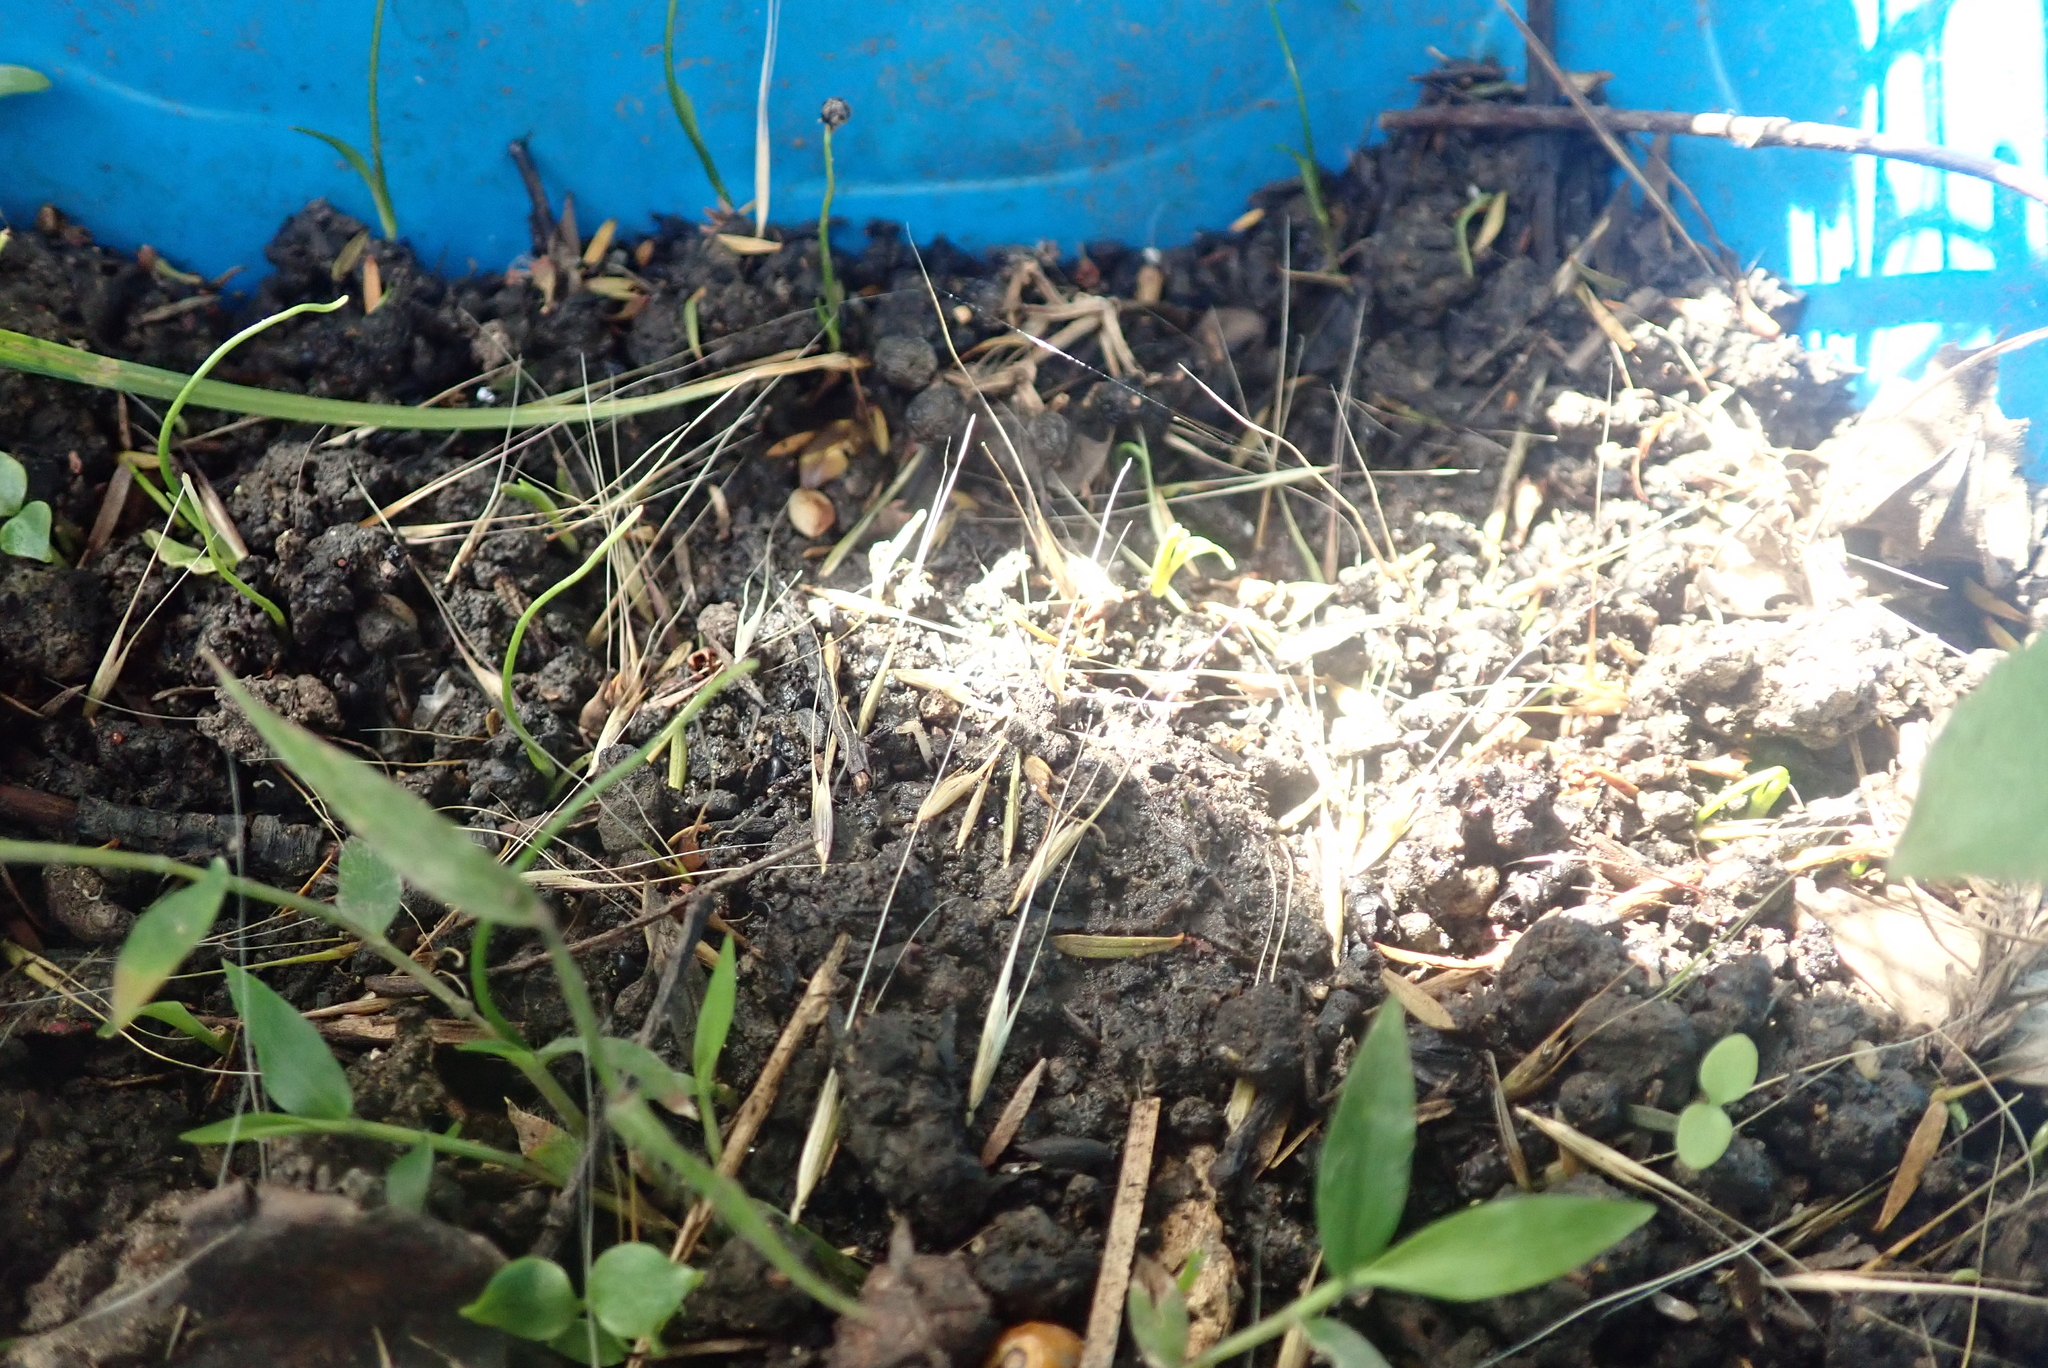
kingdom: Plantae
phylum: Tracheophyta
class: Liliopsida
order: Poales
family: Poaceae
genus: Microlaena
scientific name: Microlaena stipoides
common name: Meadow ricegrass
